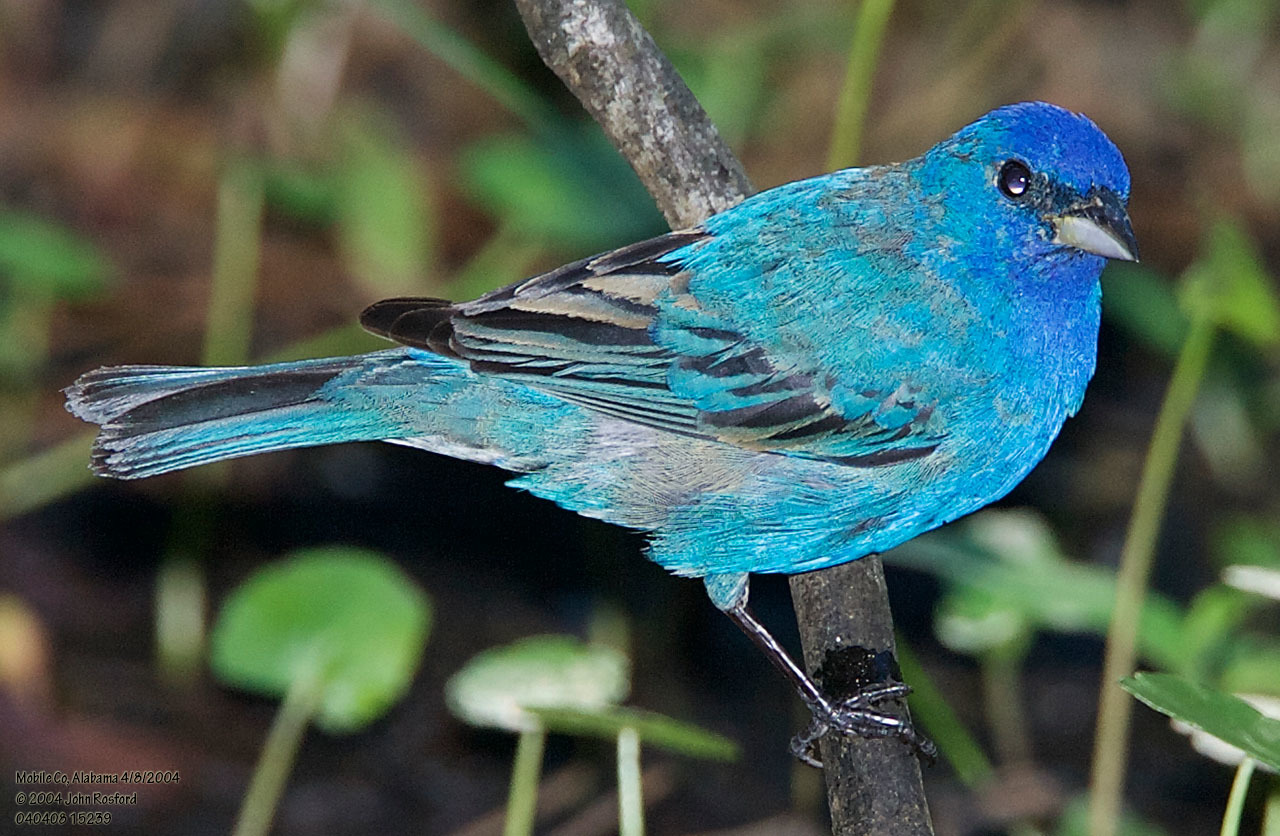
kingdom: Animalia
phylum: Chordata
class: Aves
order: Passeriformes
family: Cardinalidae
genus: Passerina
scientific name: Passerina cyanea
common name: Indigo bunting
